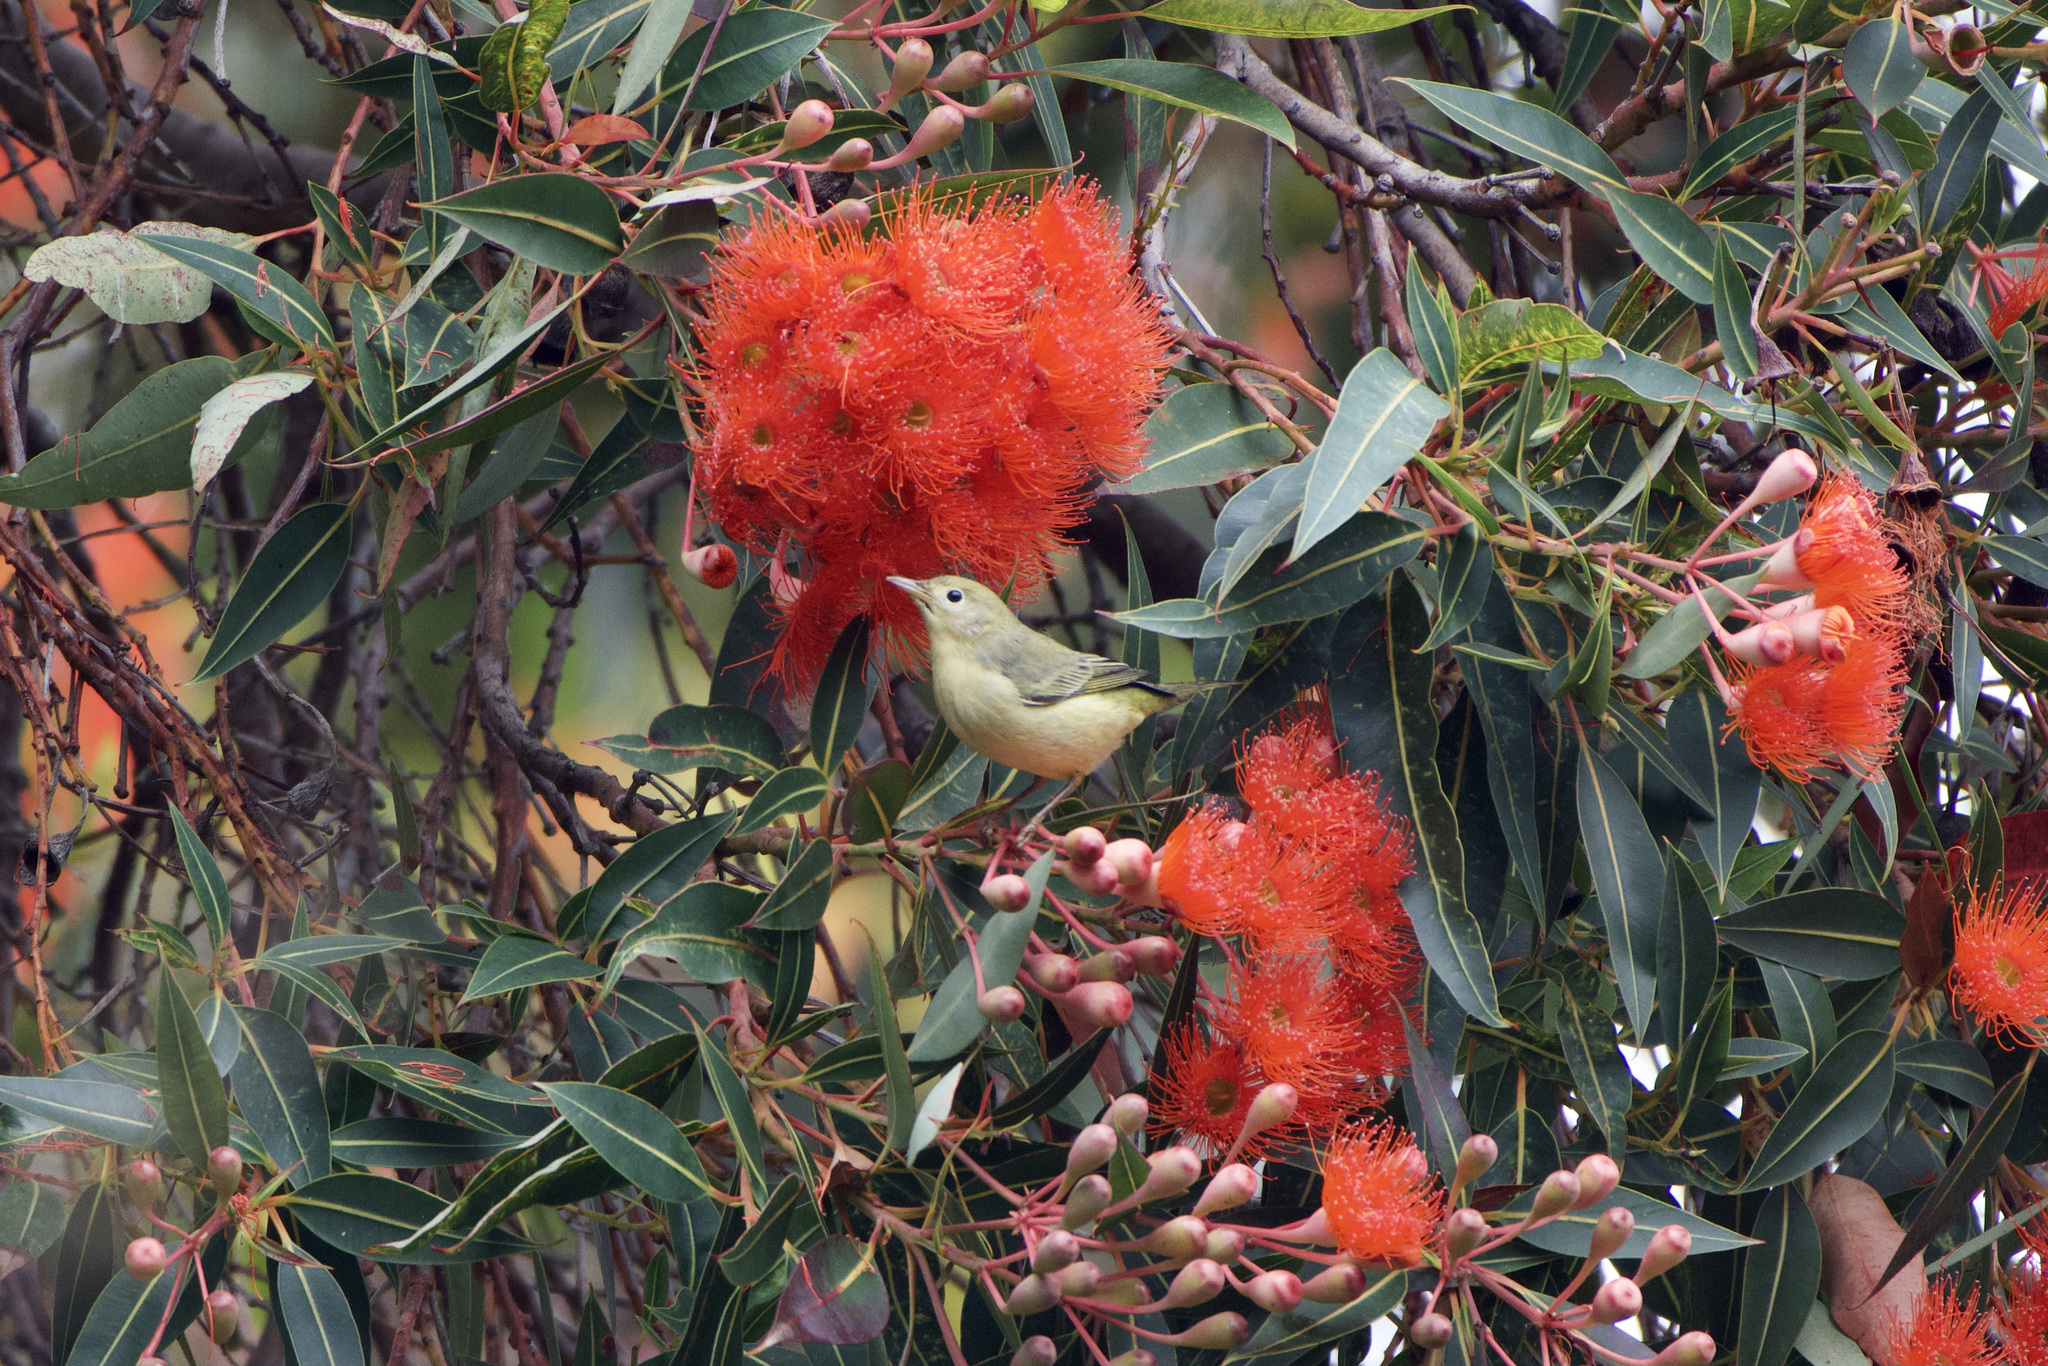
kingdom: Animalia
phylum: Chordata
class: Aves
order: Passeriformes
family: Parulidae
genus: Setophaga
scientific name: Setophaga petechia
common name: Yellow warbler
